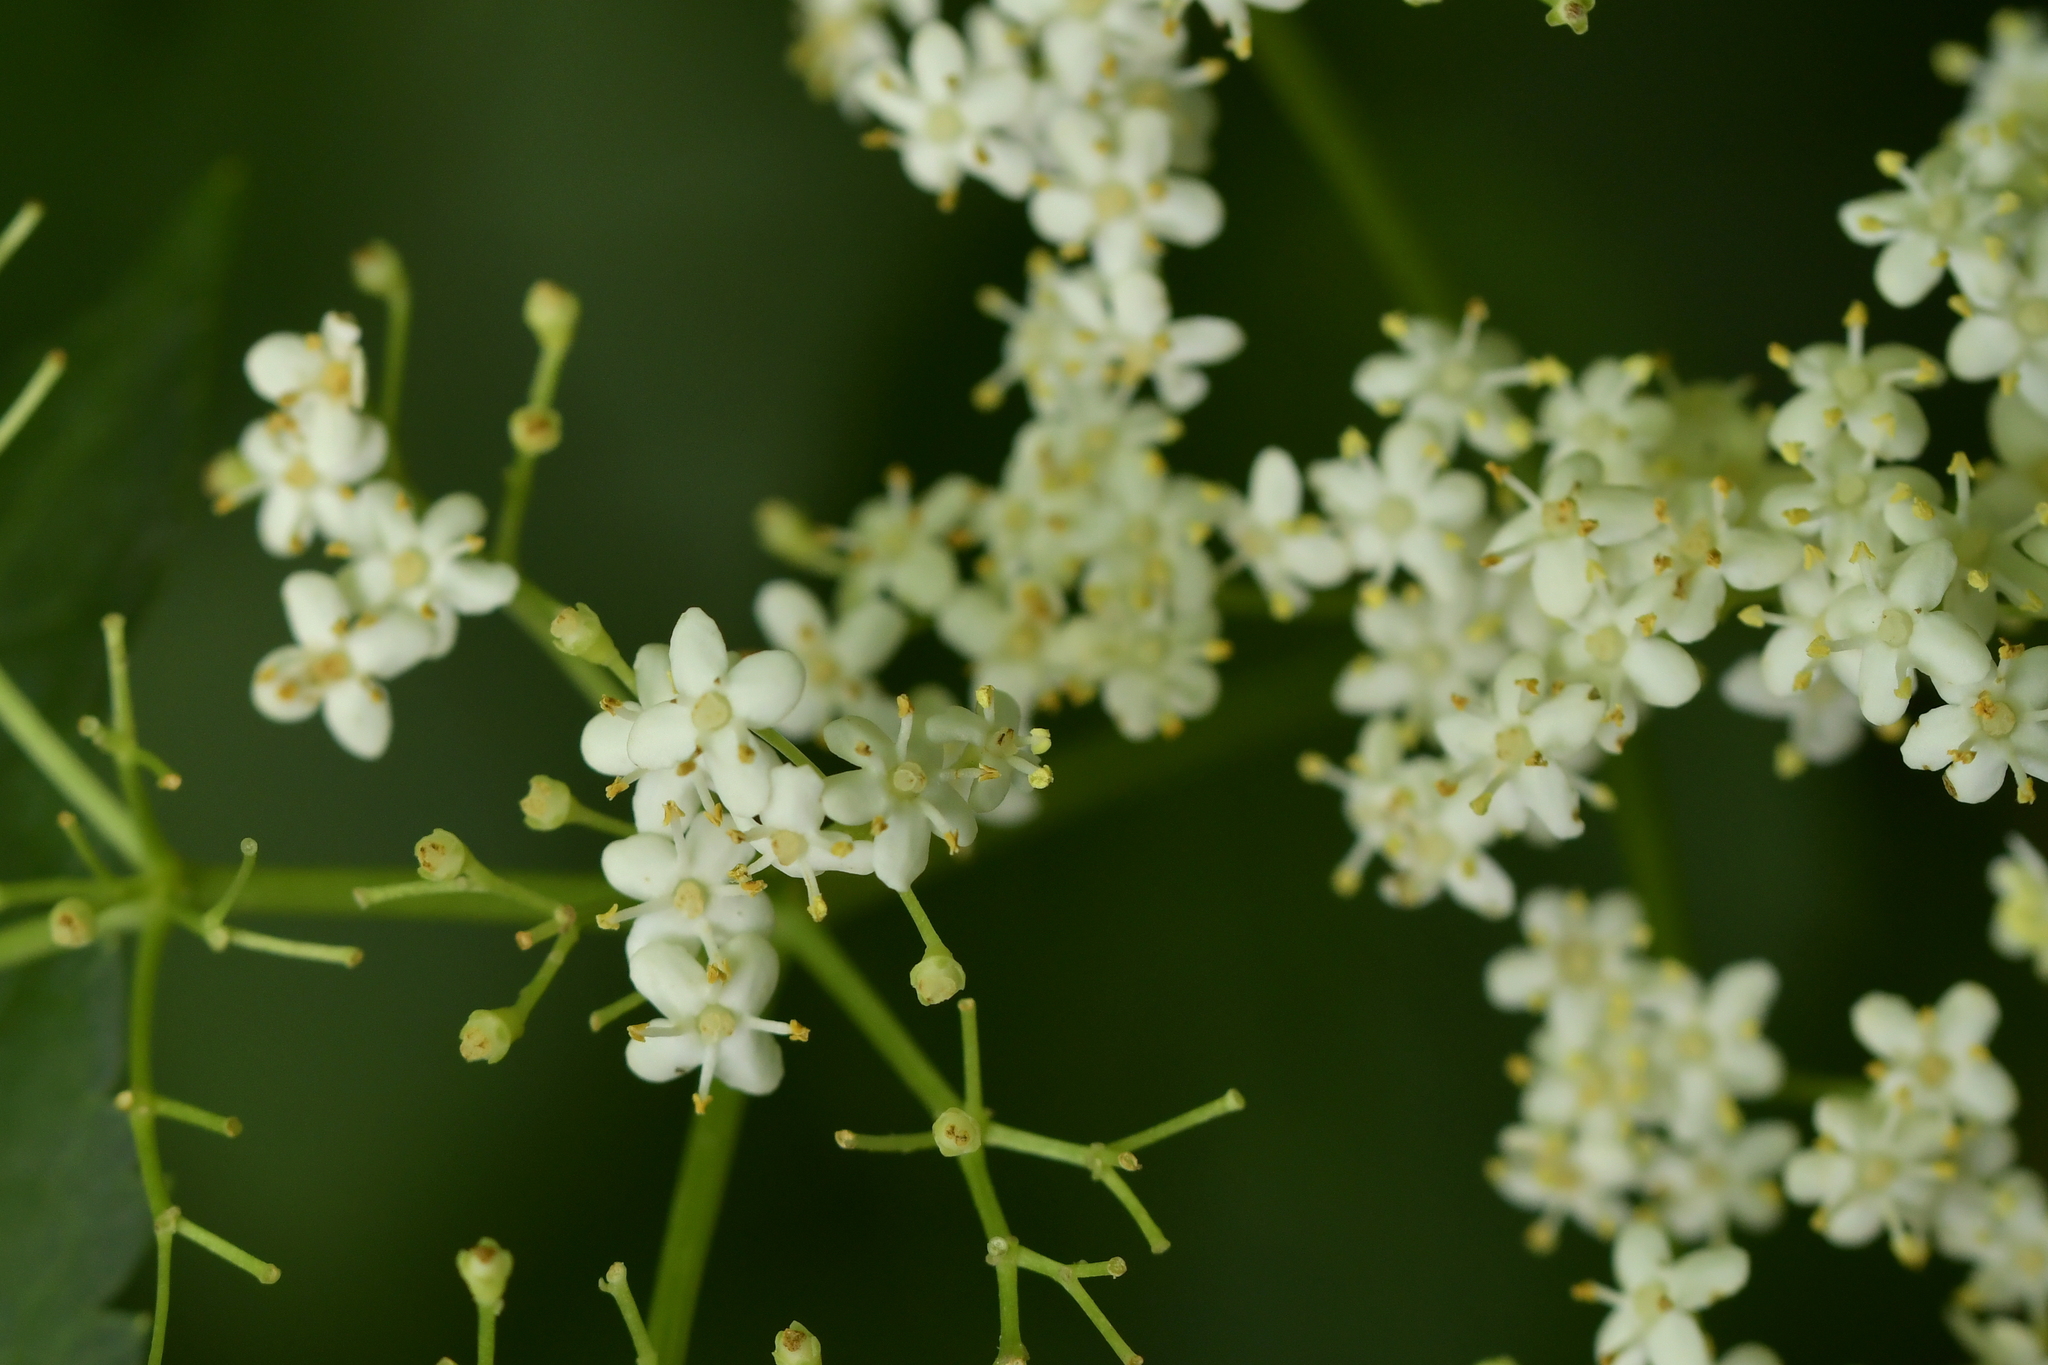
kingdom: Plantae
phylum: Tracheophyta
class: Magnoliopsida
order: Dipsacales
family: Viburnaceae
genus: Sambucus
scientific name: Sambucus nigra
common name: Elder
